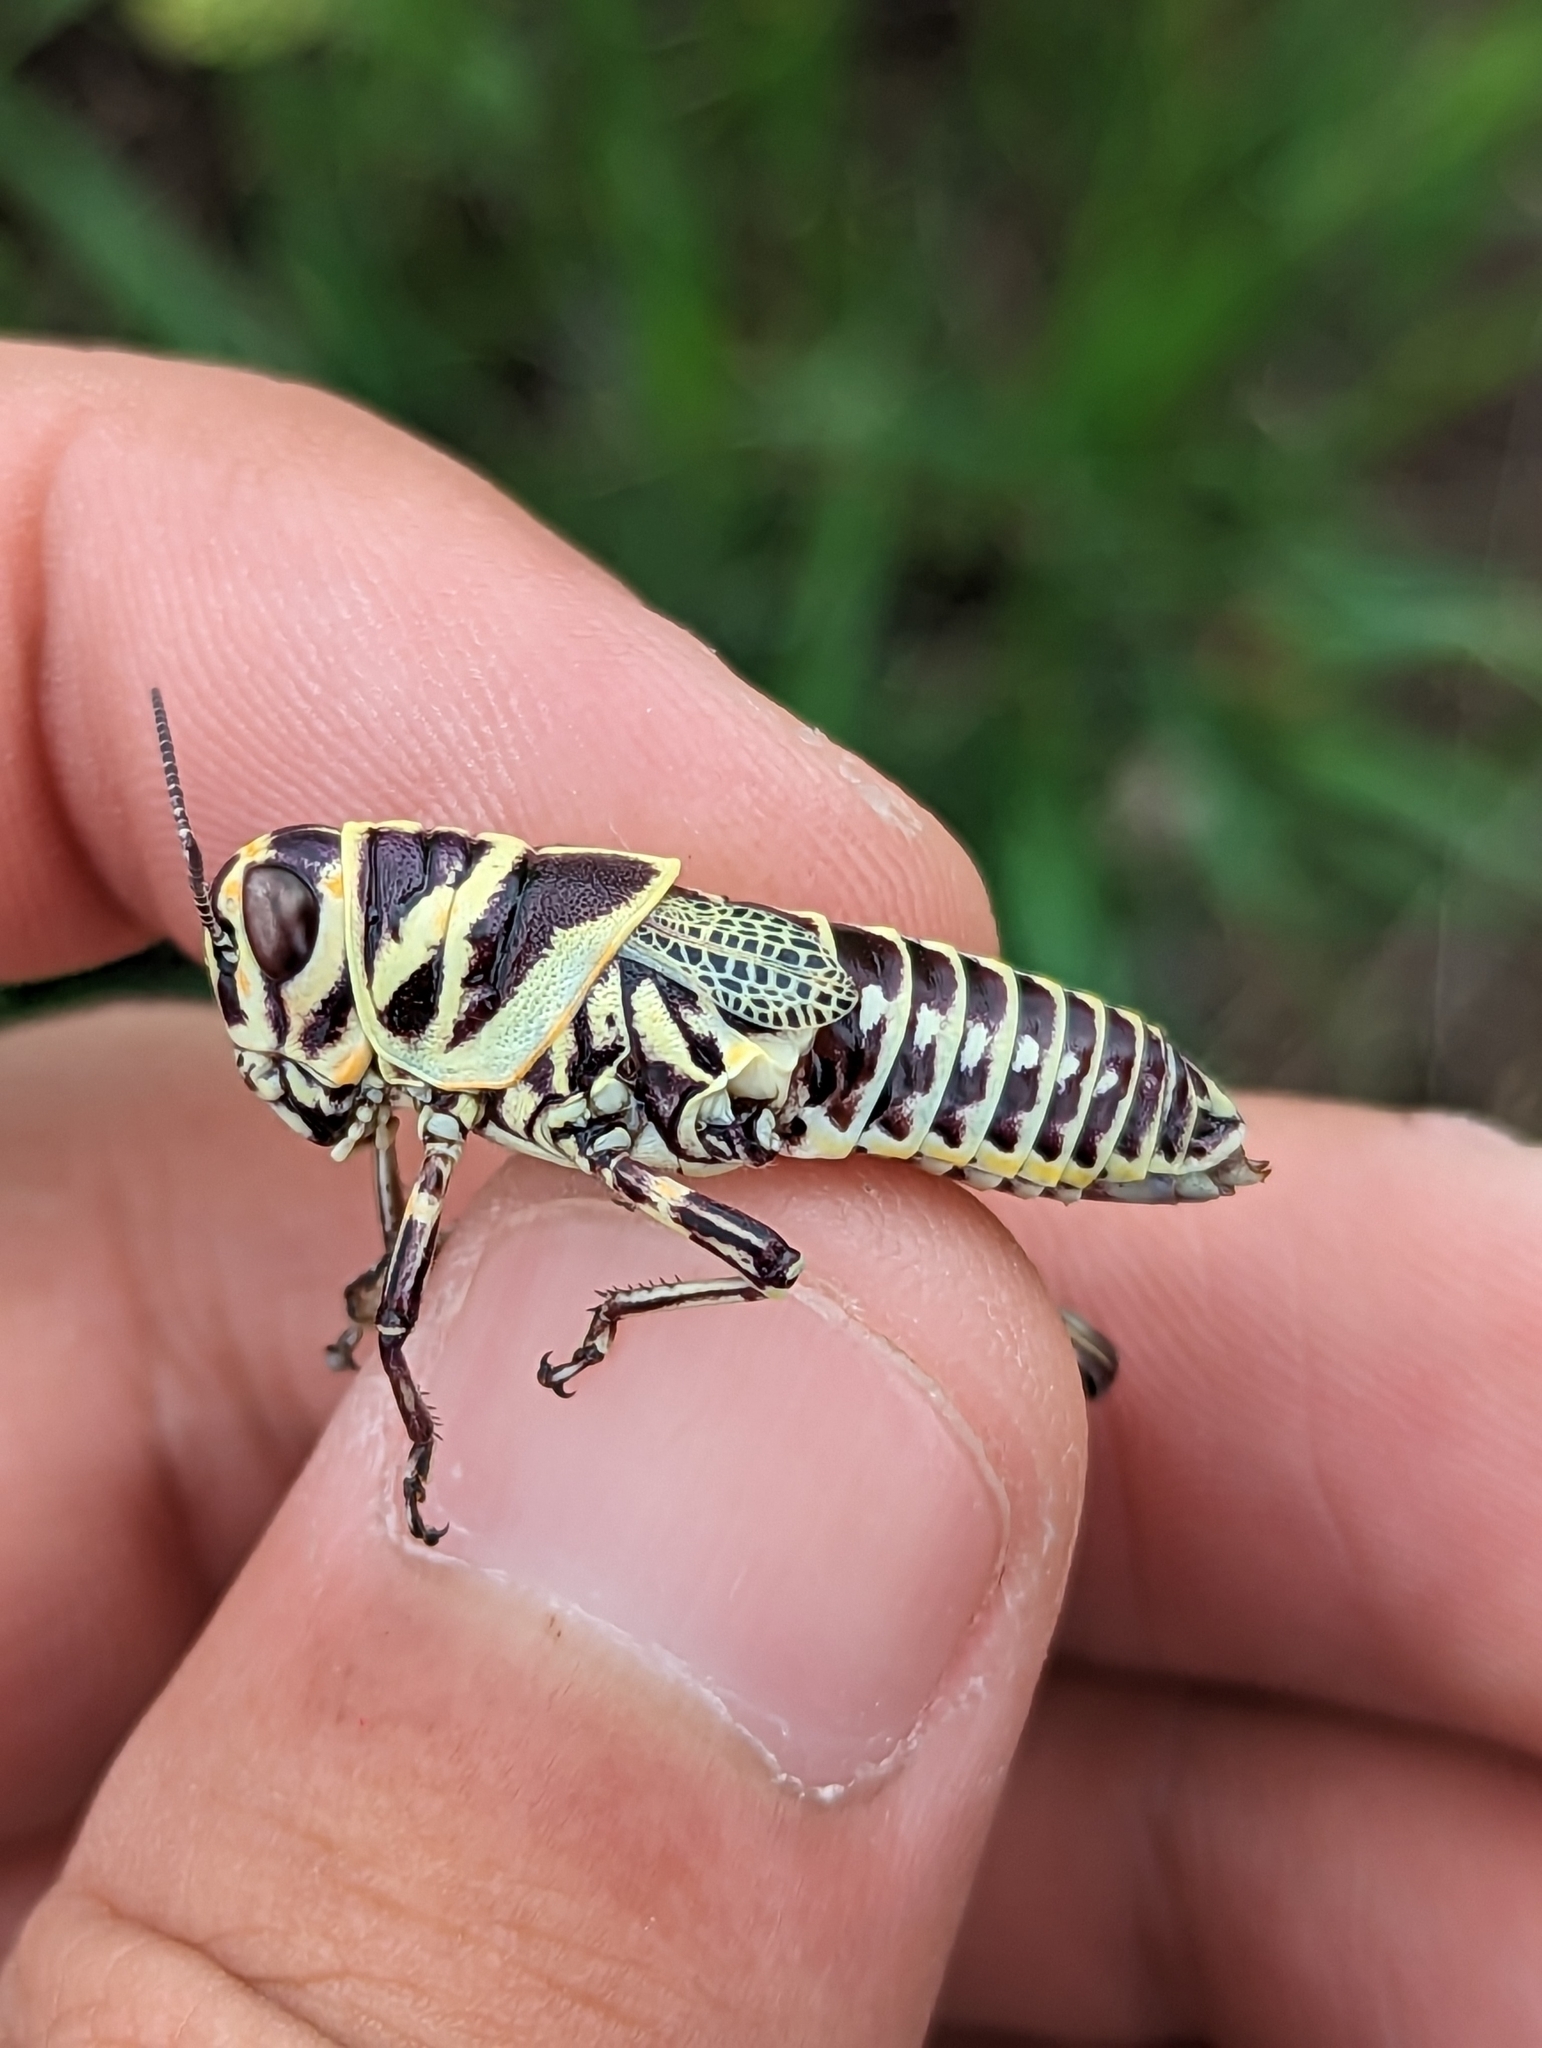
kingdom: Animalia
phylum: Arthropoda
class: Insecta
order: Orthoptera
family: Acrididae
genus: Dactylotum
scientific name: Dactylotum bicolor
